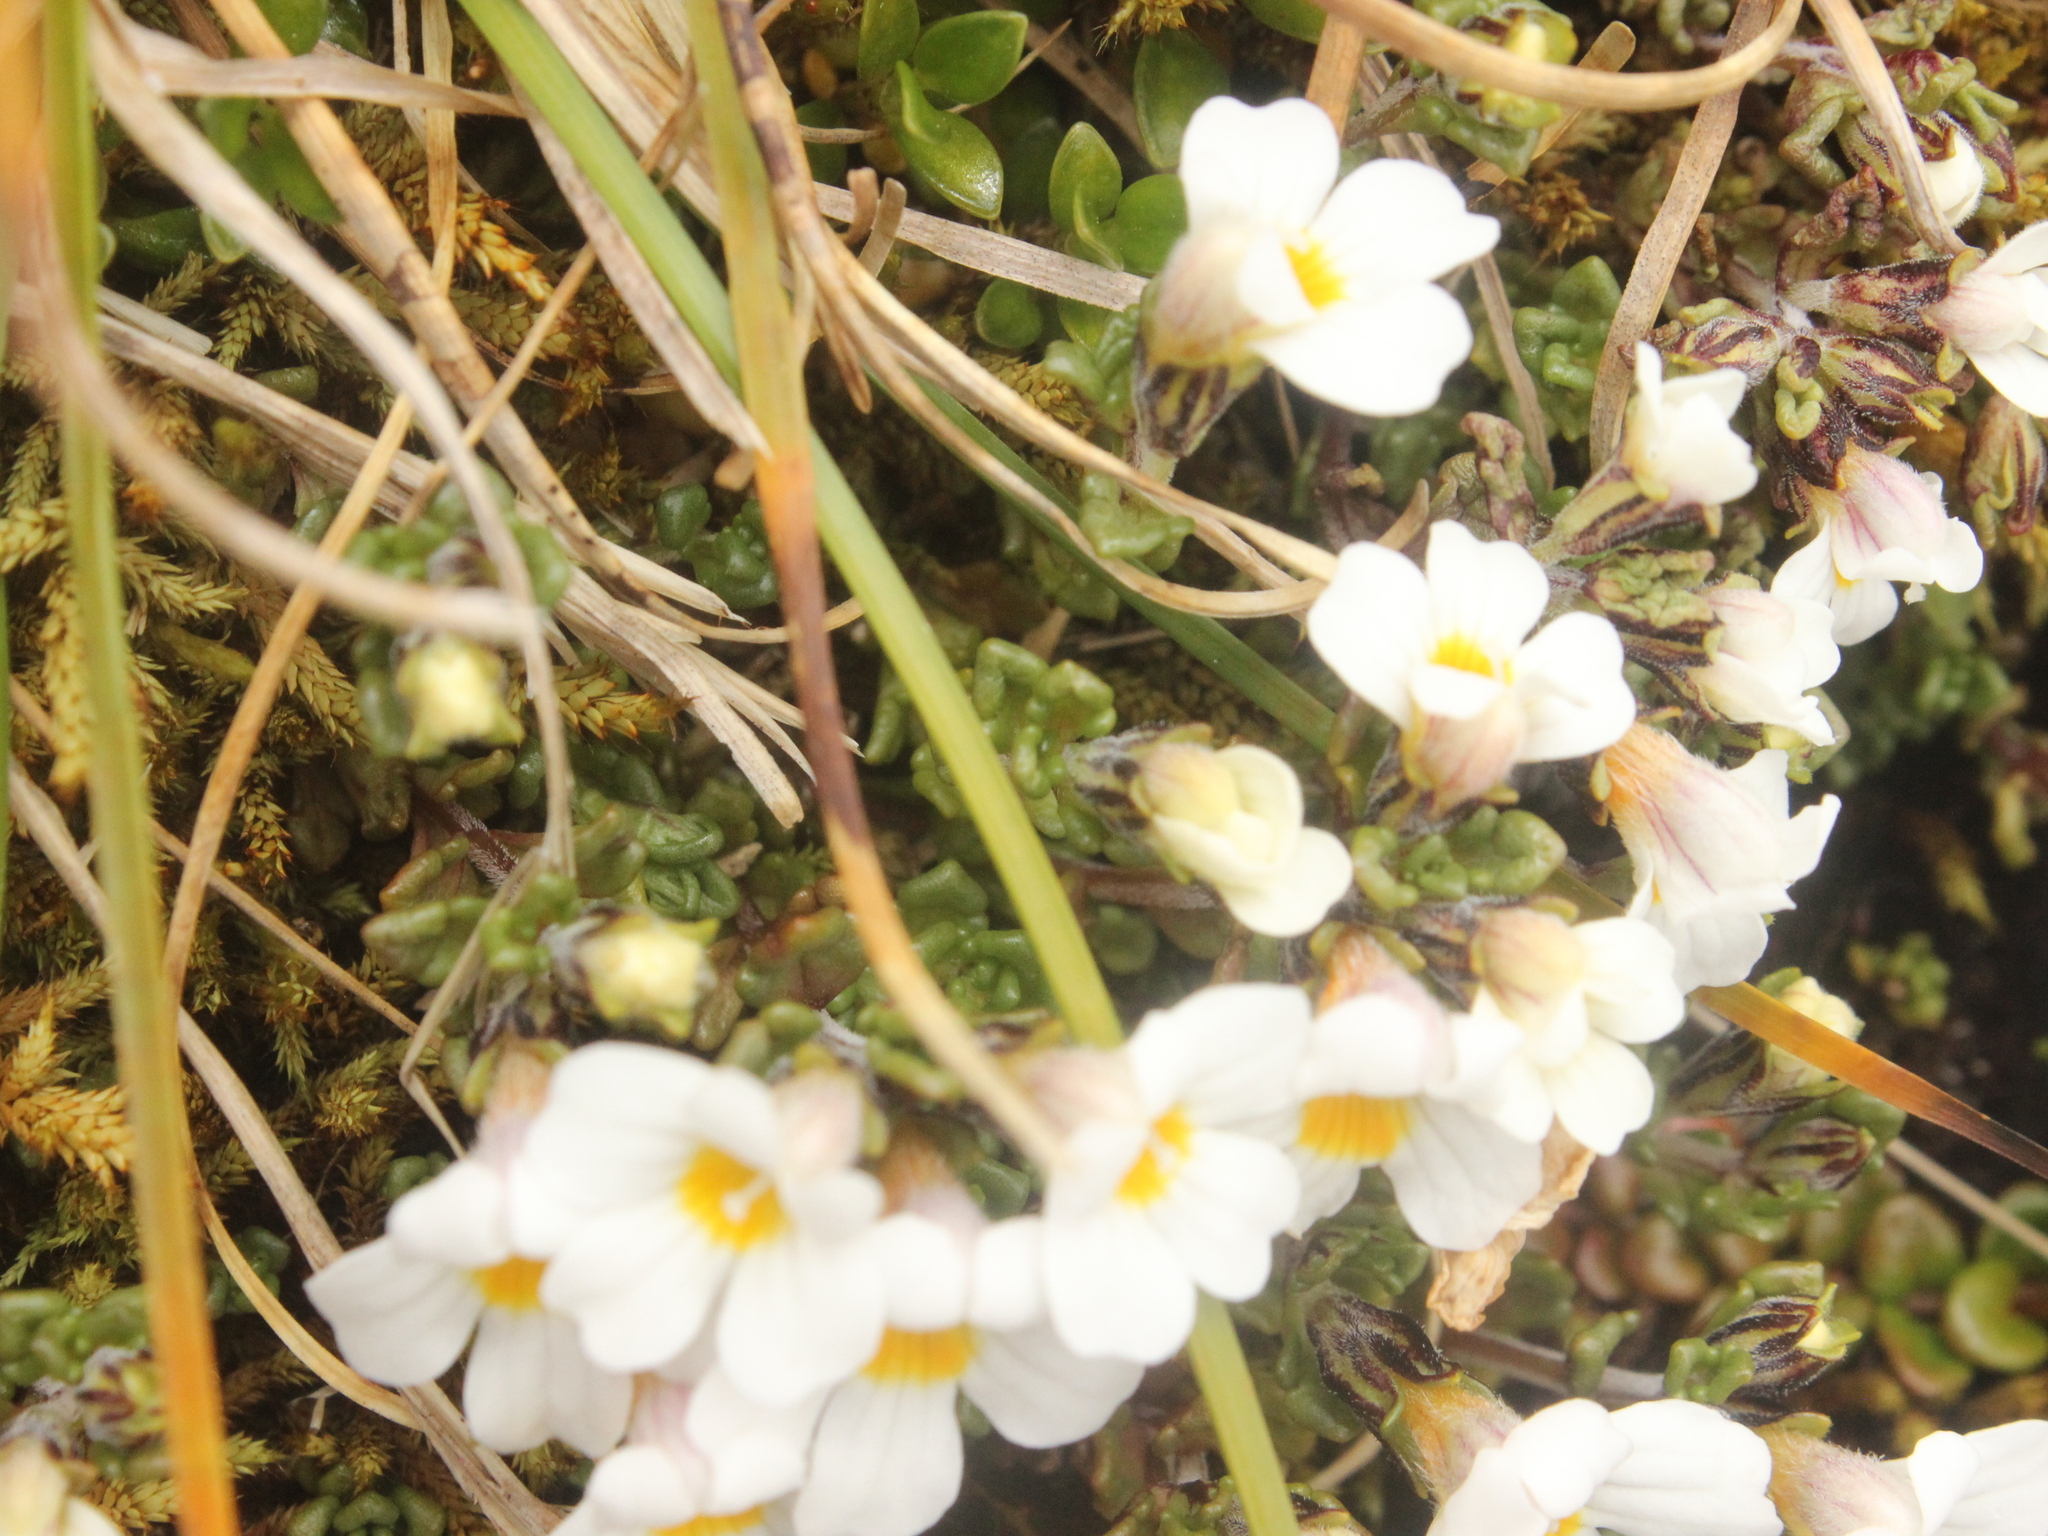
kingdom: Plantae
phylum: Tracheophyta
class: Magnoliopsida
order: Lamiales
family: Orobanchaceae
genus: Euphrasia
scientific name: Euphrasia drucei
